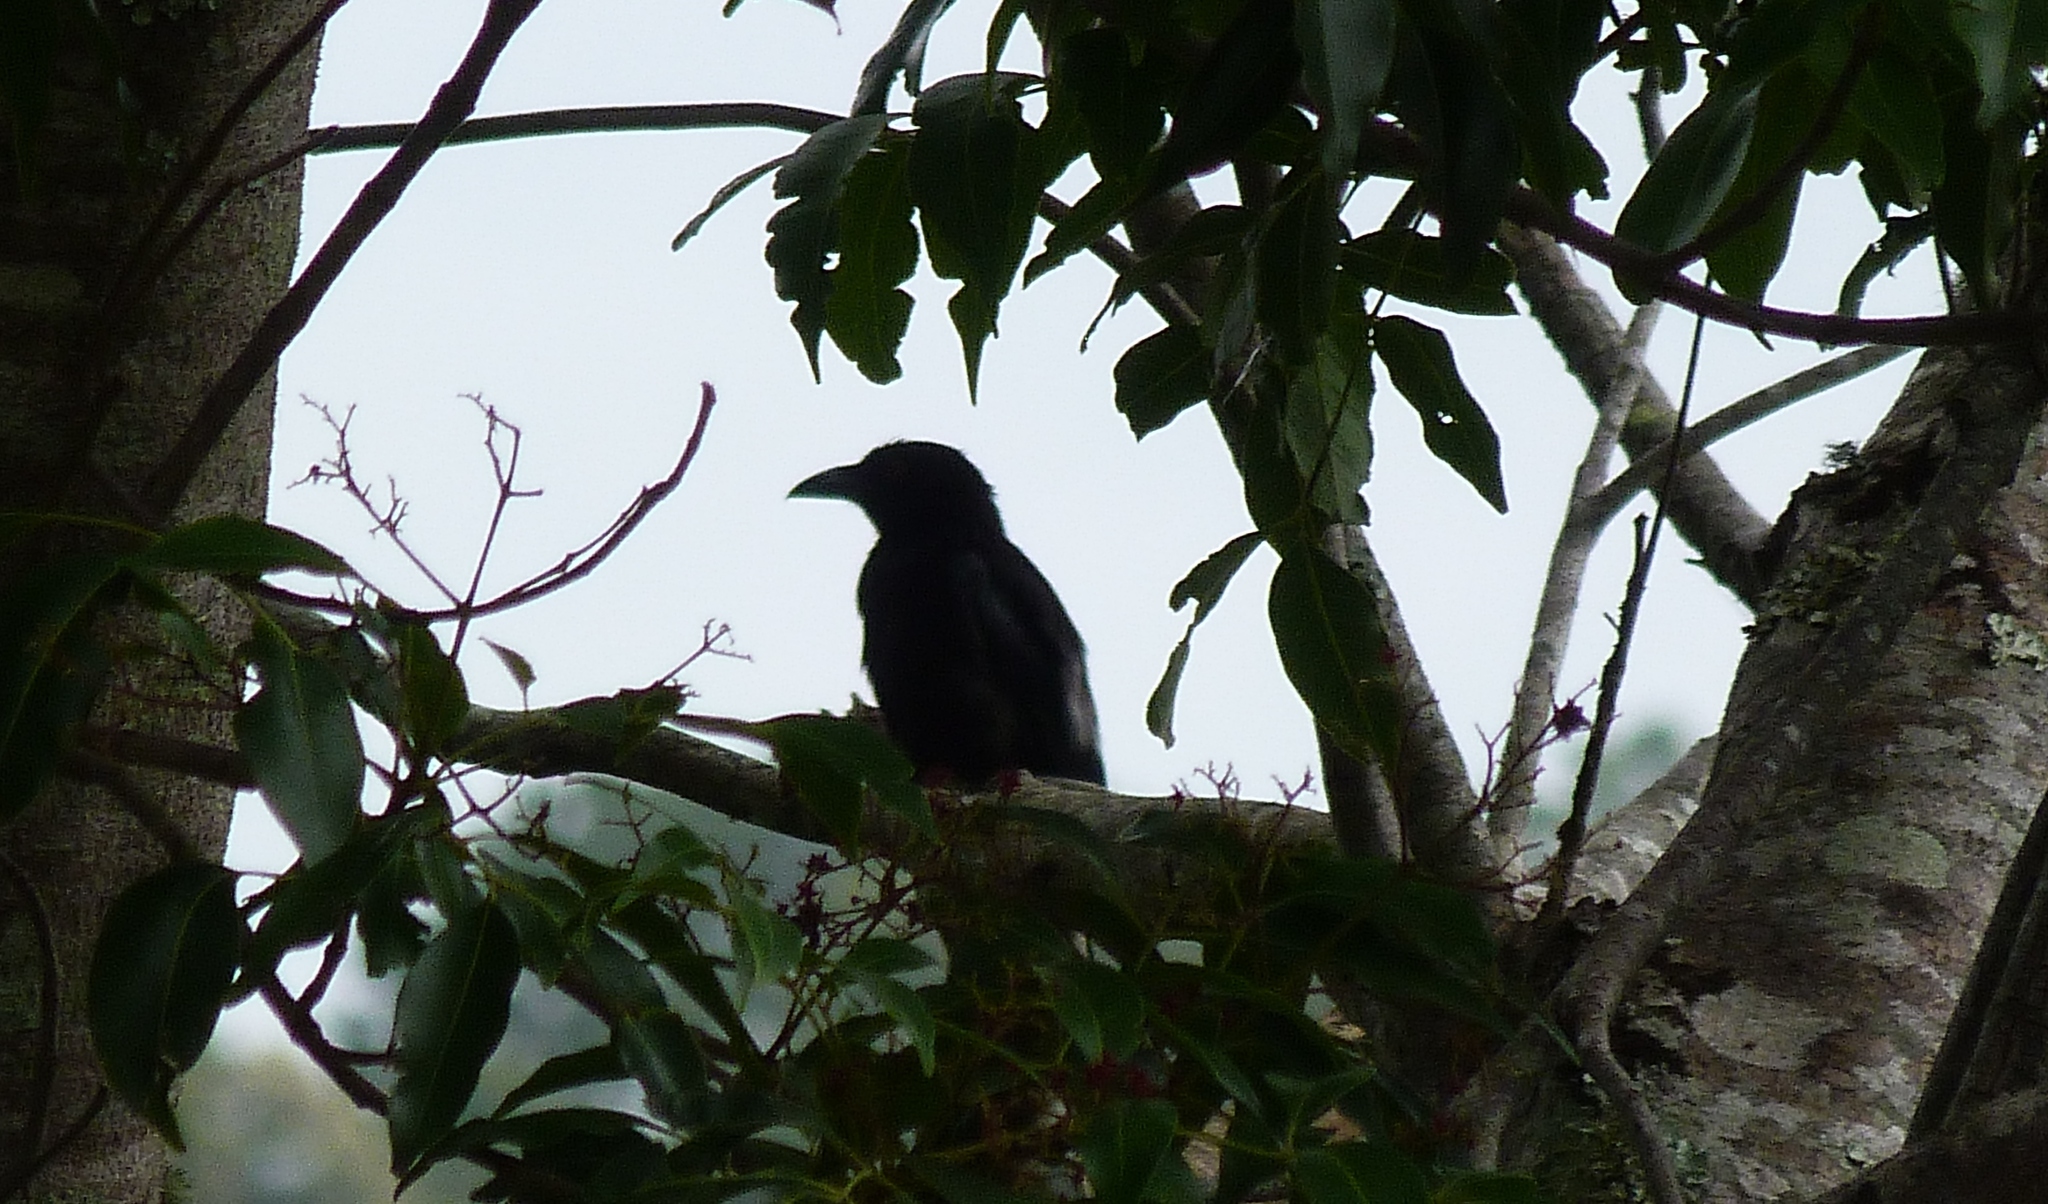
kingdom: Animalia
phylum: Chordata
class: Aves
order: Passeriformes
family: Dicruridae
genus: Dicrurus
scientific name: Dicrurus bracteatus
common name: Spangled drongo
